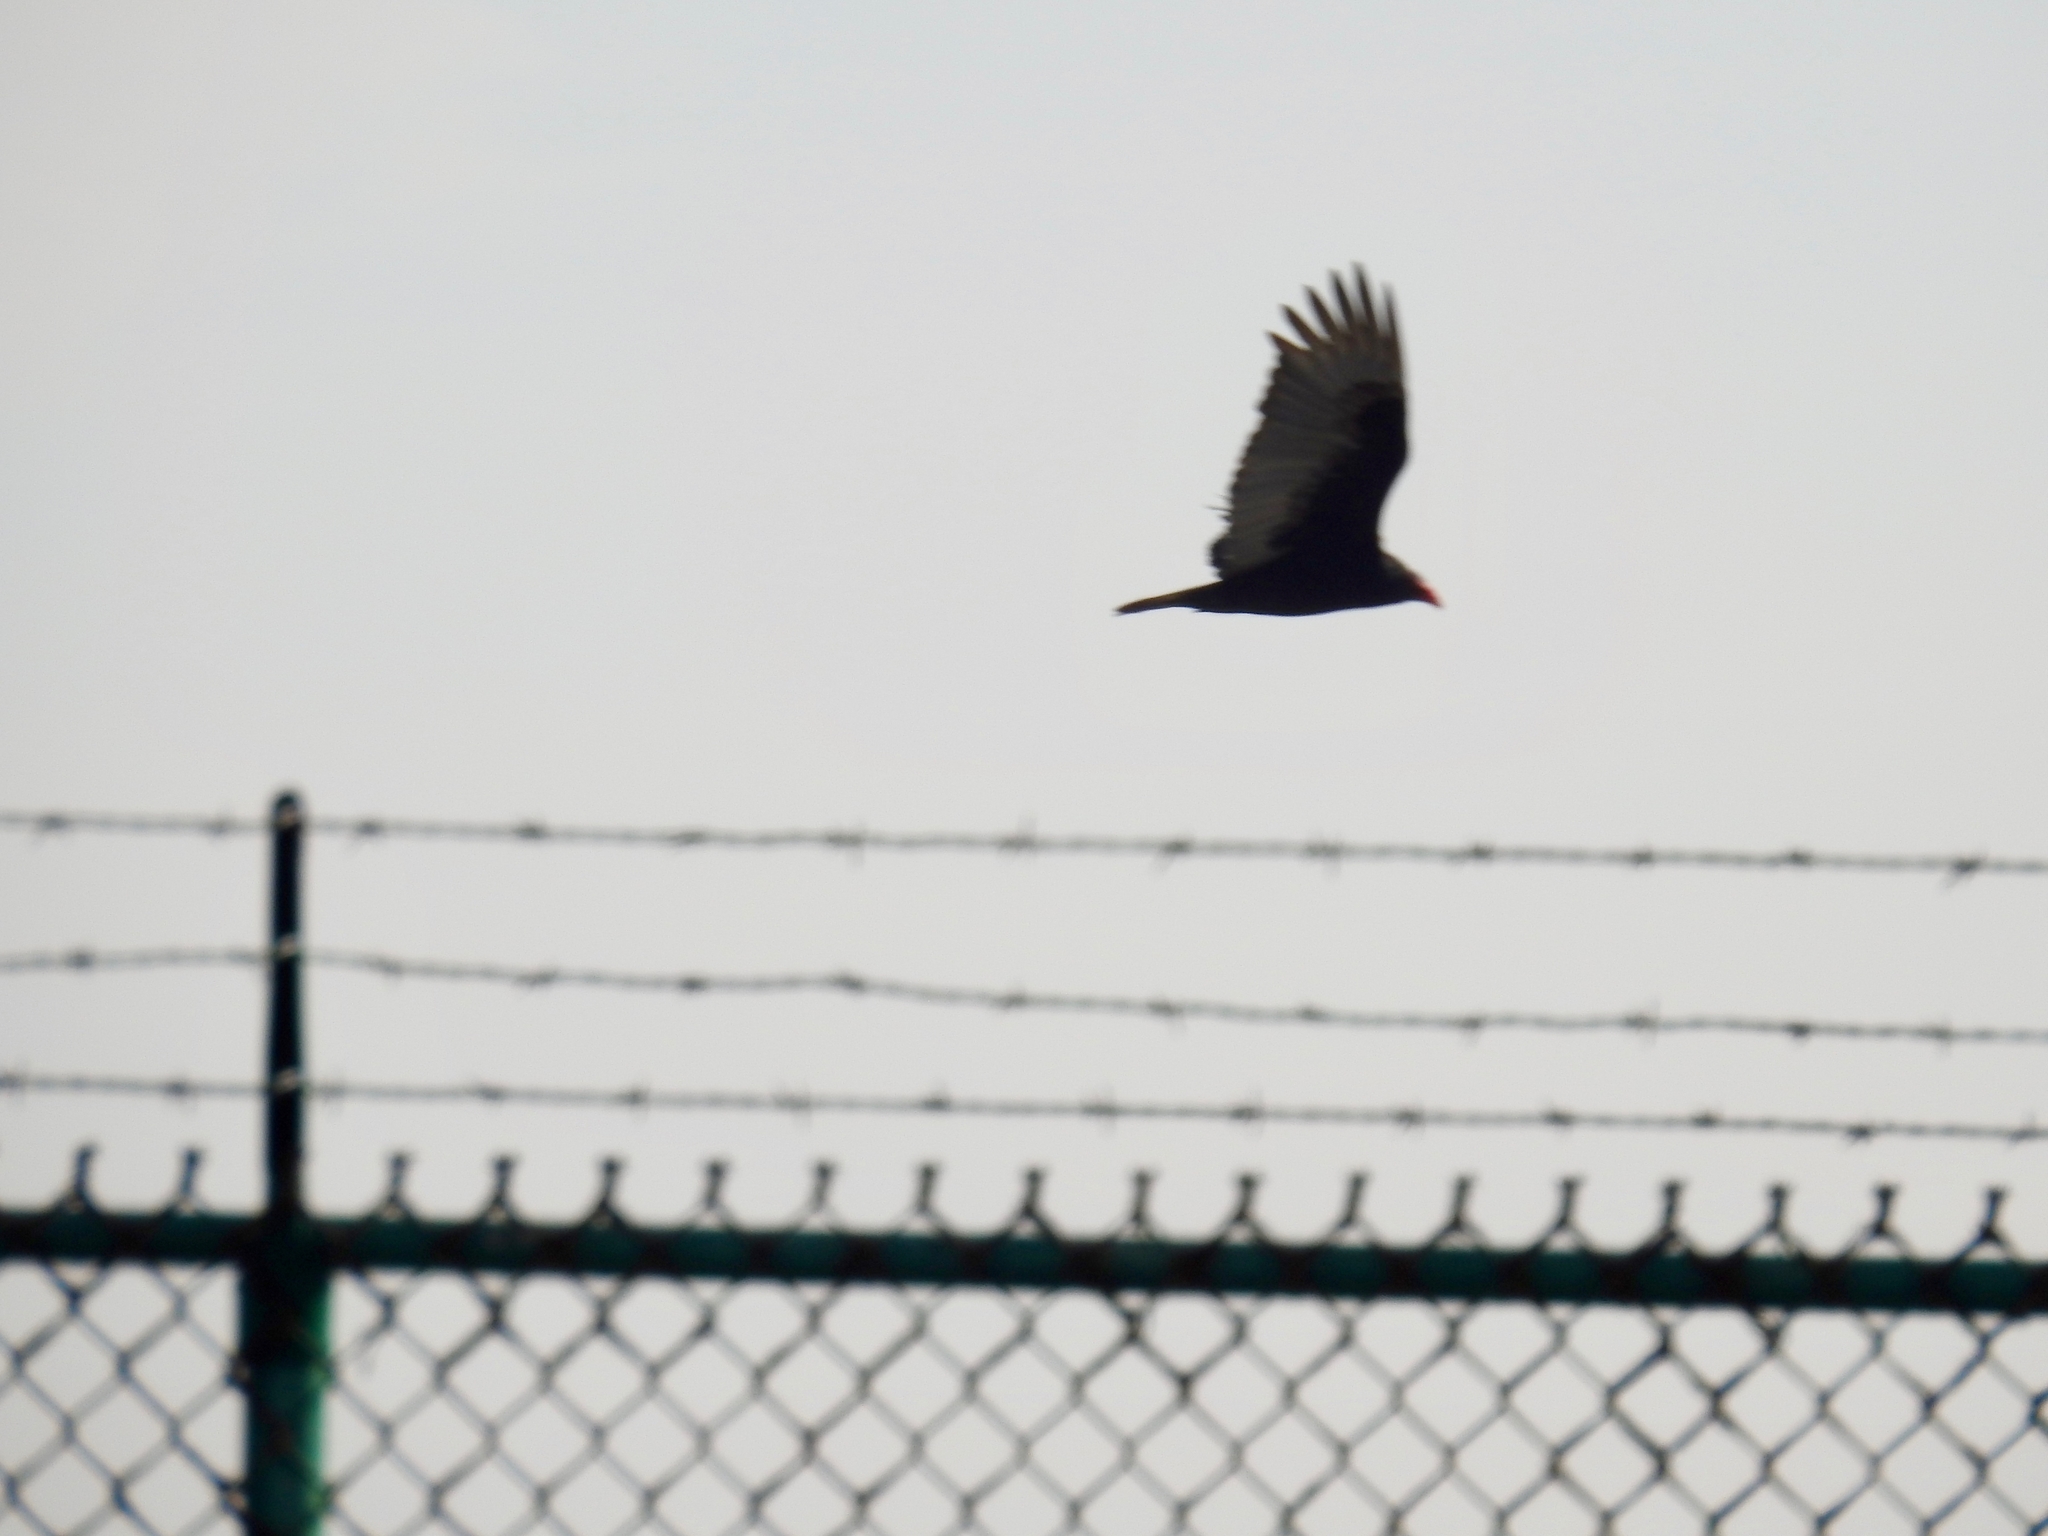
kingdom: Animalia
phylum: Chordata
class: Aves
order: Accipitriformes
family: Cathartidae
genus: Cathartes
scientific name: Cathartes aura
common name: Turkey vulture
